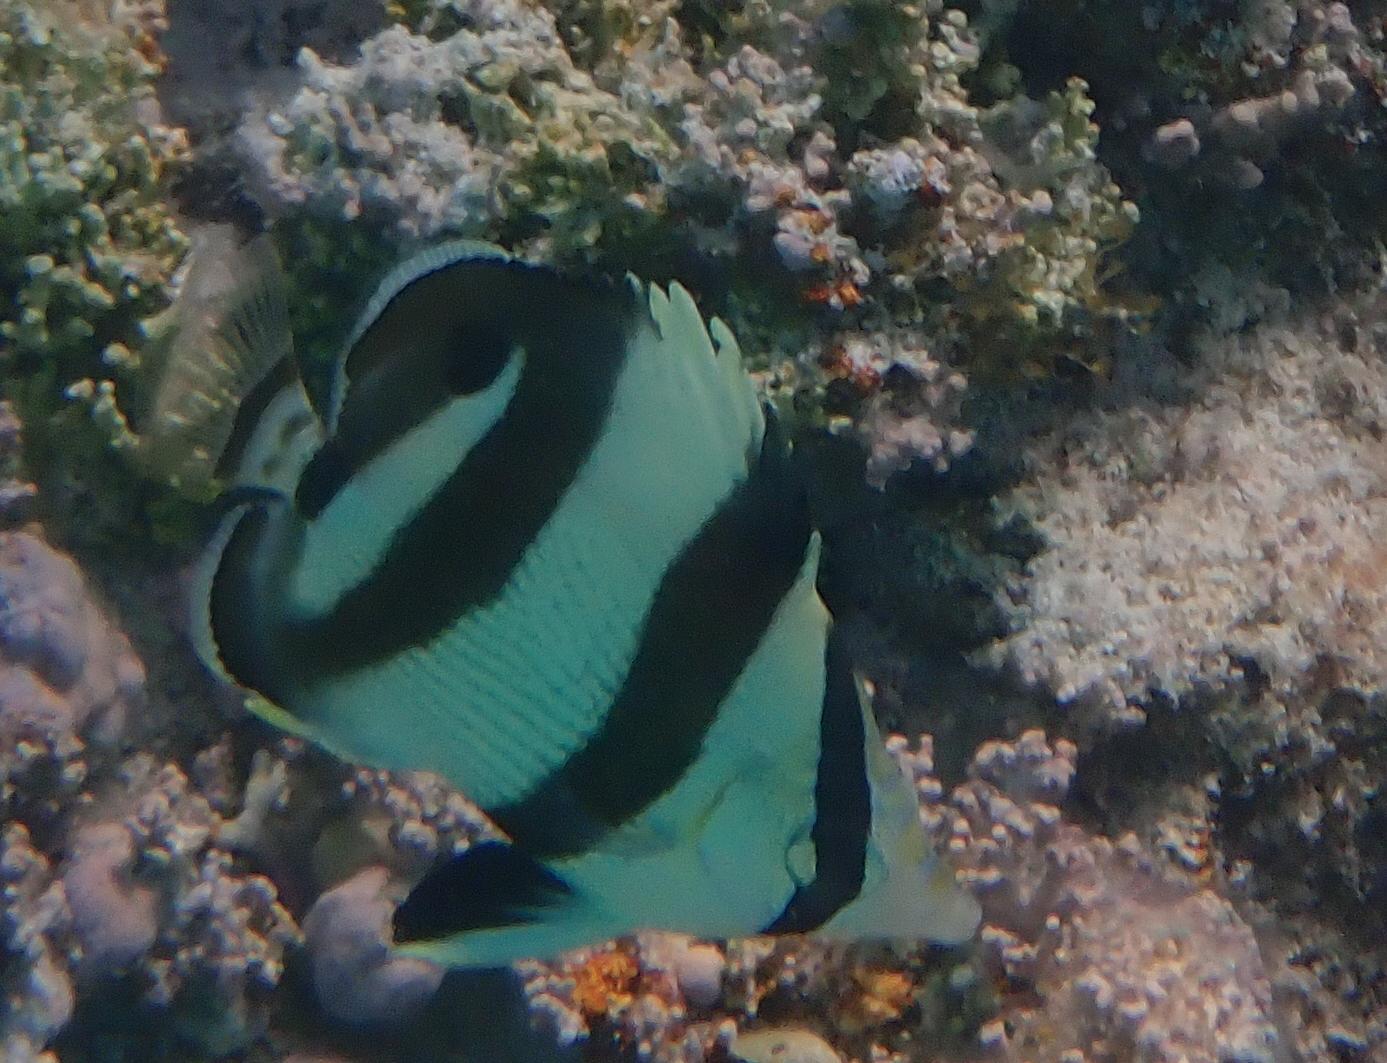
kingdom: Animalia
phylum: Chordata
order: Perciformes
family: Chaetodontidae
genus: Chaetodon
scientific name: Chaetodon striatus
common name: Banded butterflyfish
